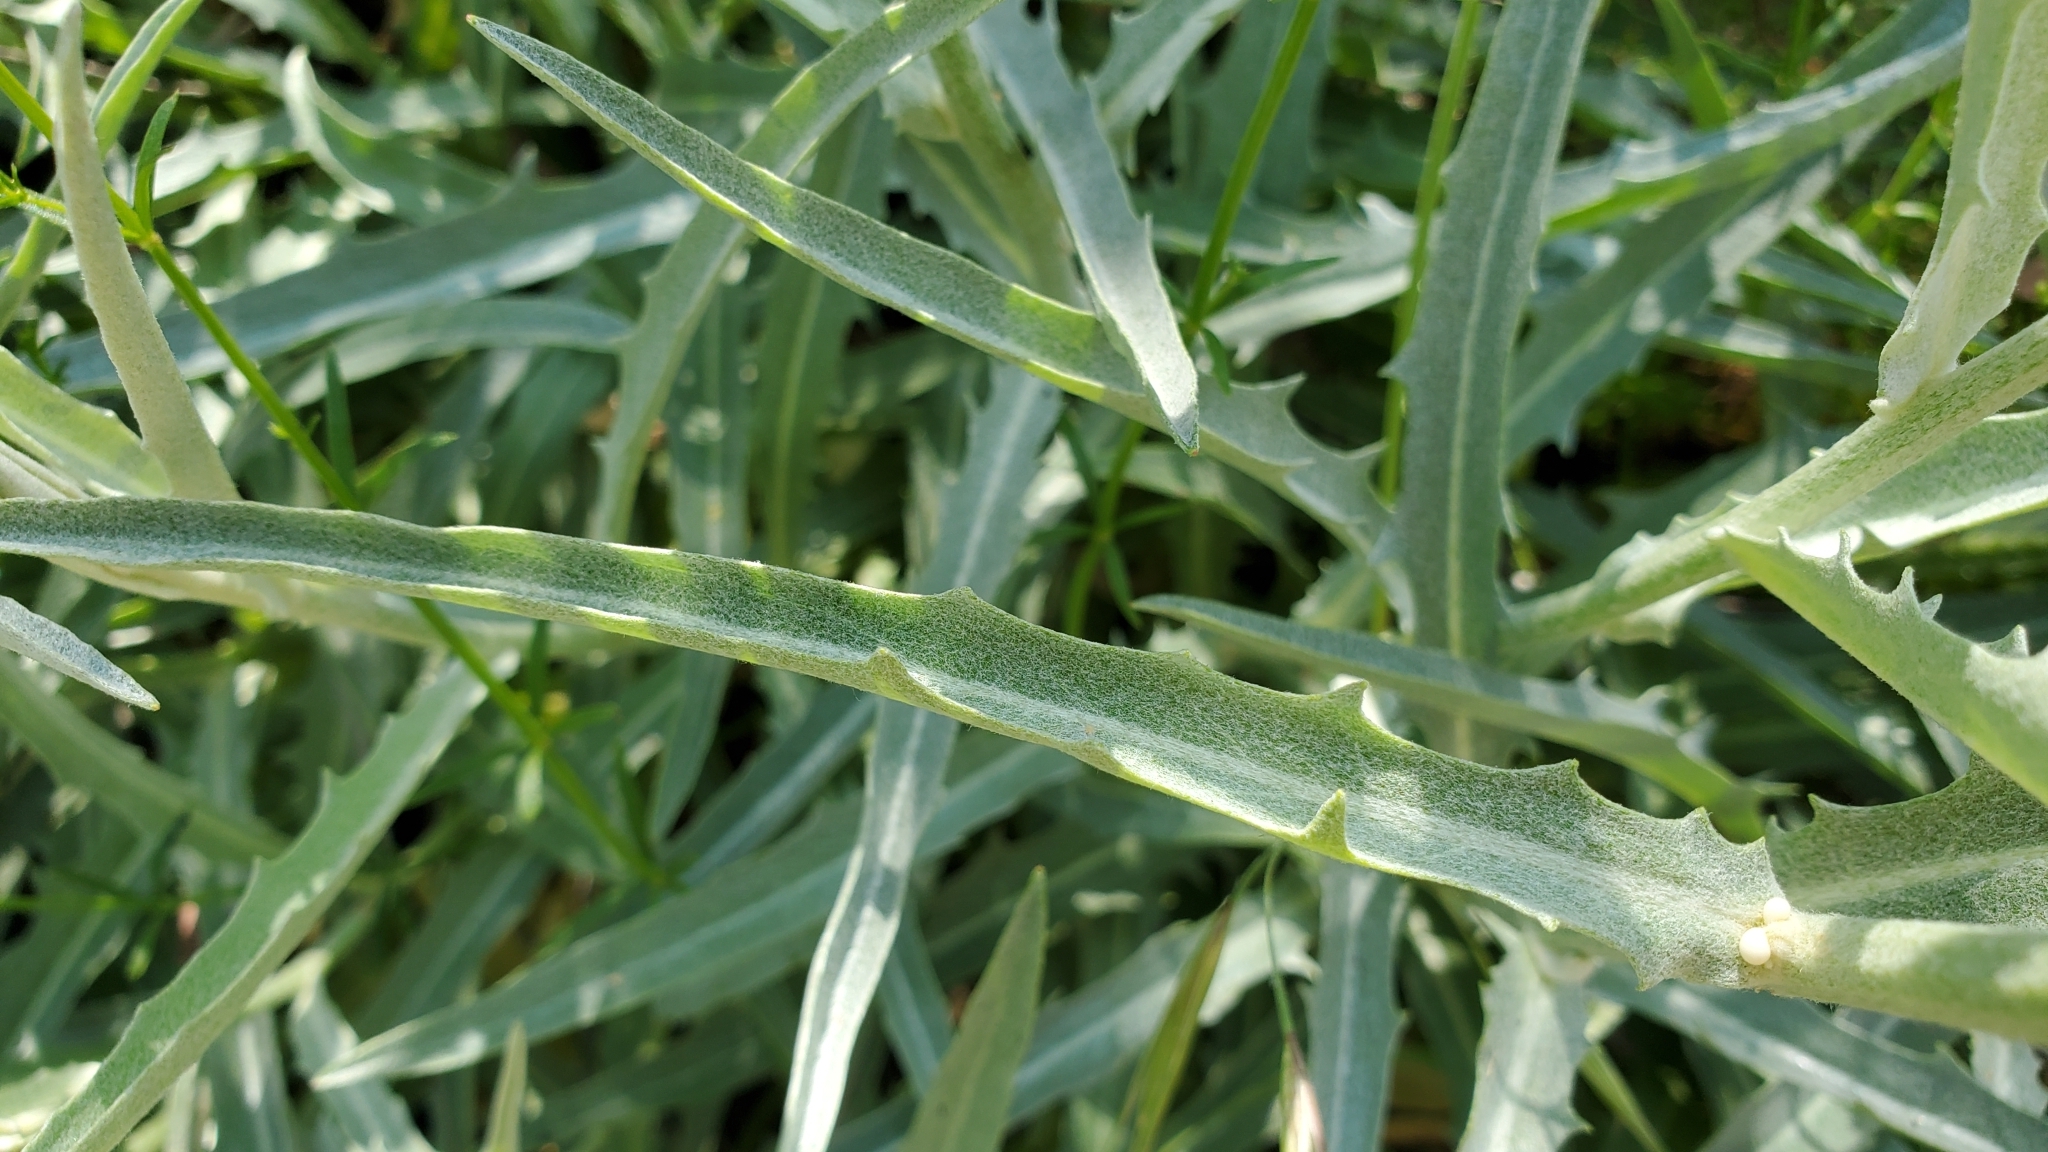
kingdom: Plantae
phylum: Tracheophyta
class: Magnoliopsida
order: Asterales
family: Asteraceae
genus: Stephanomeria
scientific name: Stephanomeria cichoriacea
